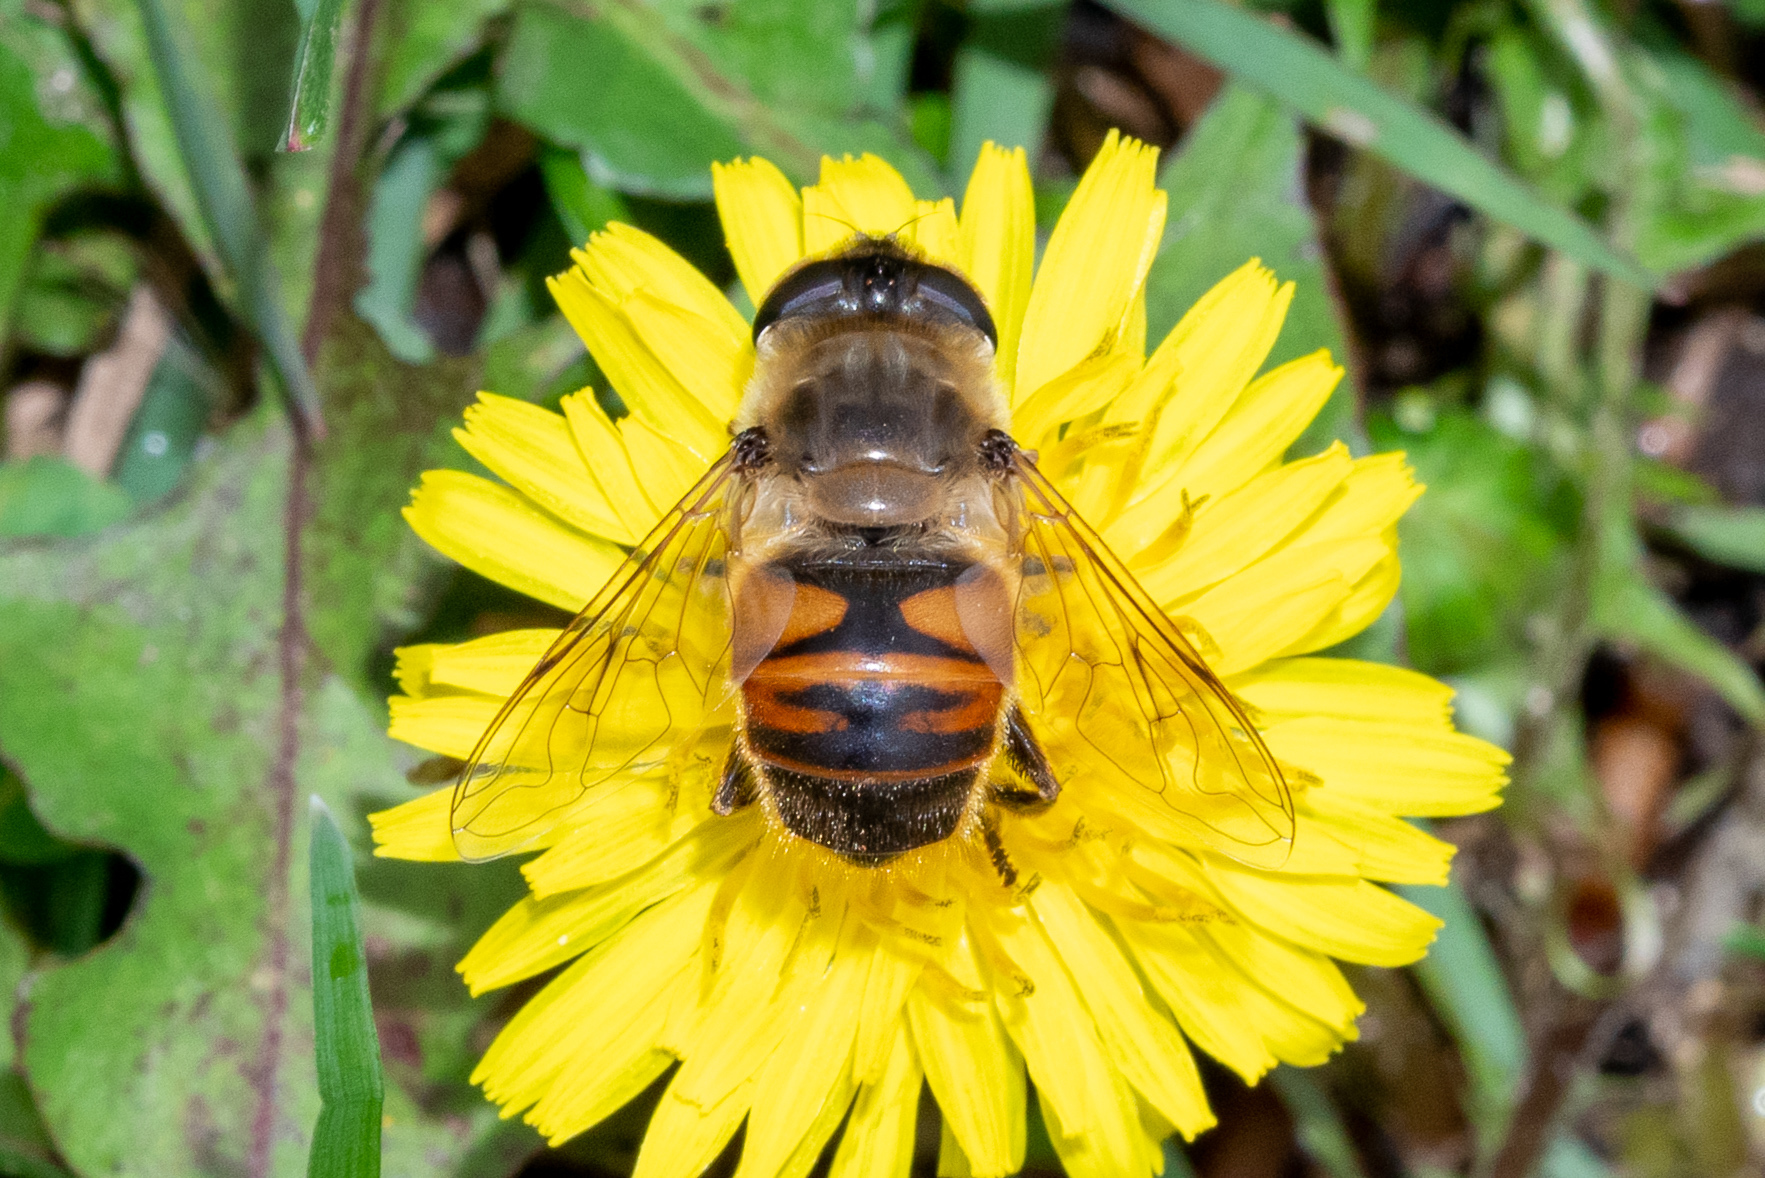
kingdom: Animalia
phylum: Arthropoda
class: Insecta
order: Diptera
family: Syrphidae
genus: Eristalis
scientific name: Eristalis tenax
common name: Drone fly
